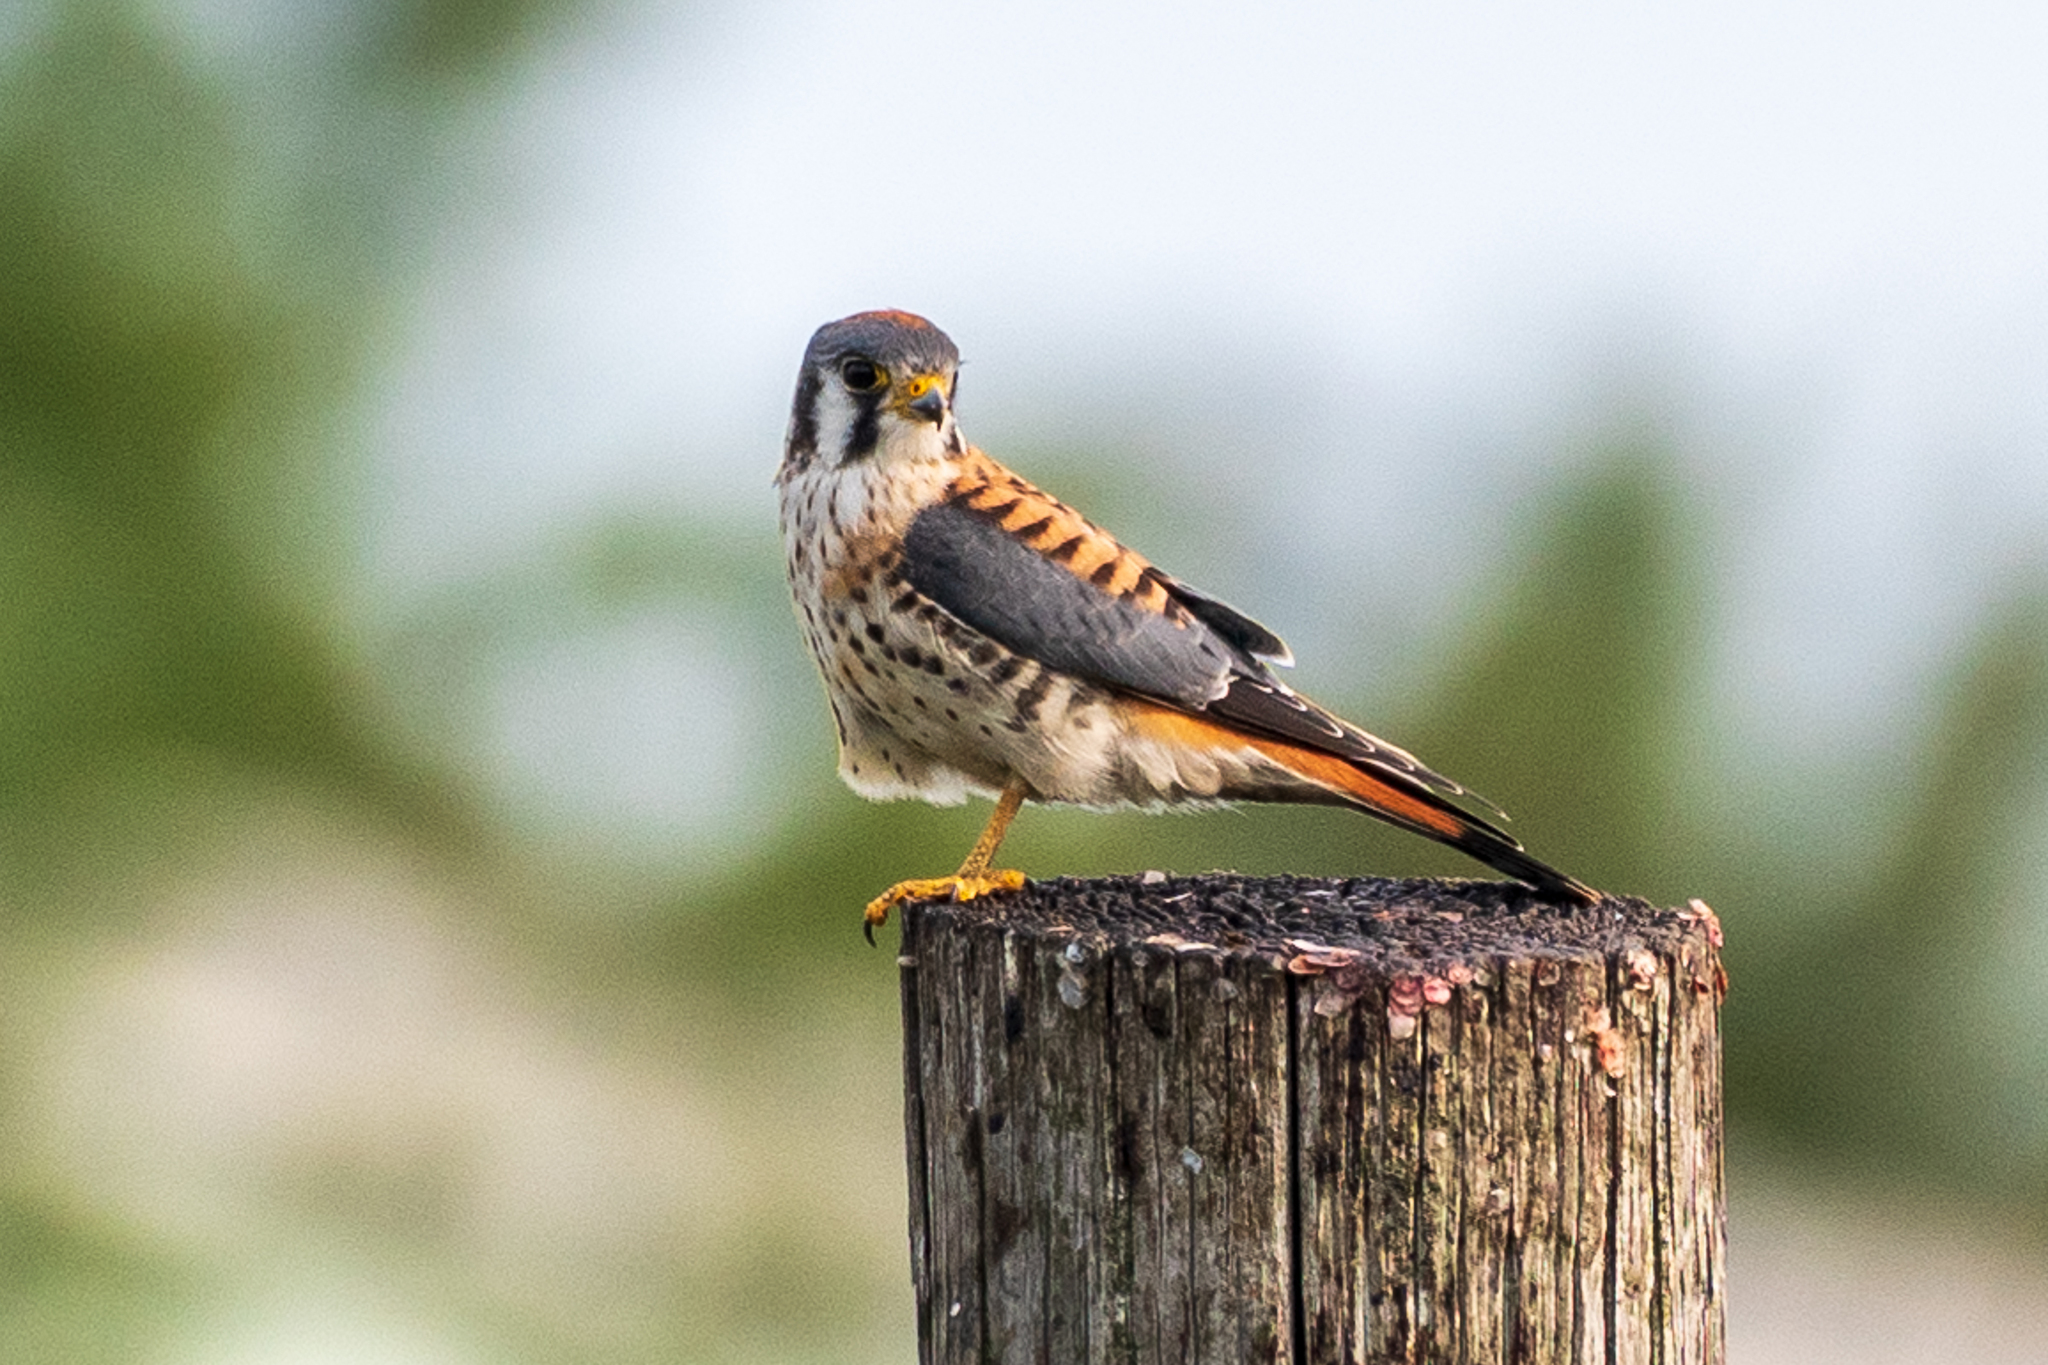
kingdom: Animalia
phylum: Chordata
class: Aves
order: Falconiformes
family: Falconidae
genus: Falco
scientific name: Falco sparverius
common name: American kestrel
